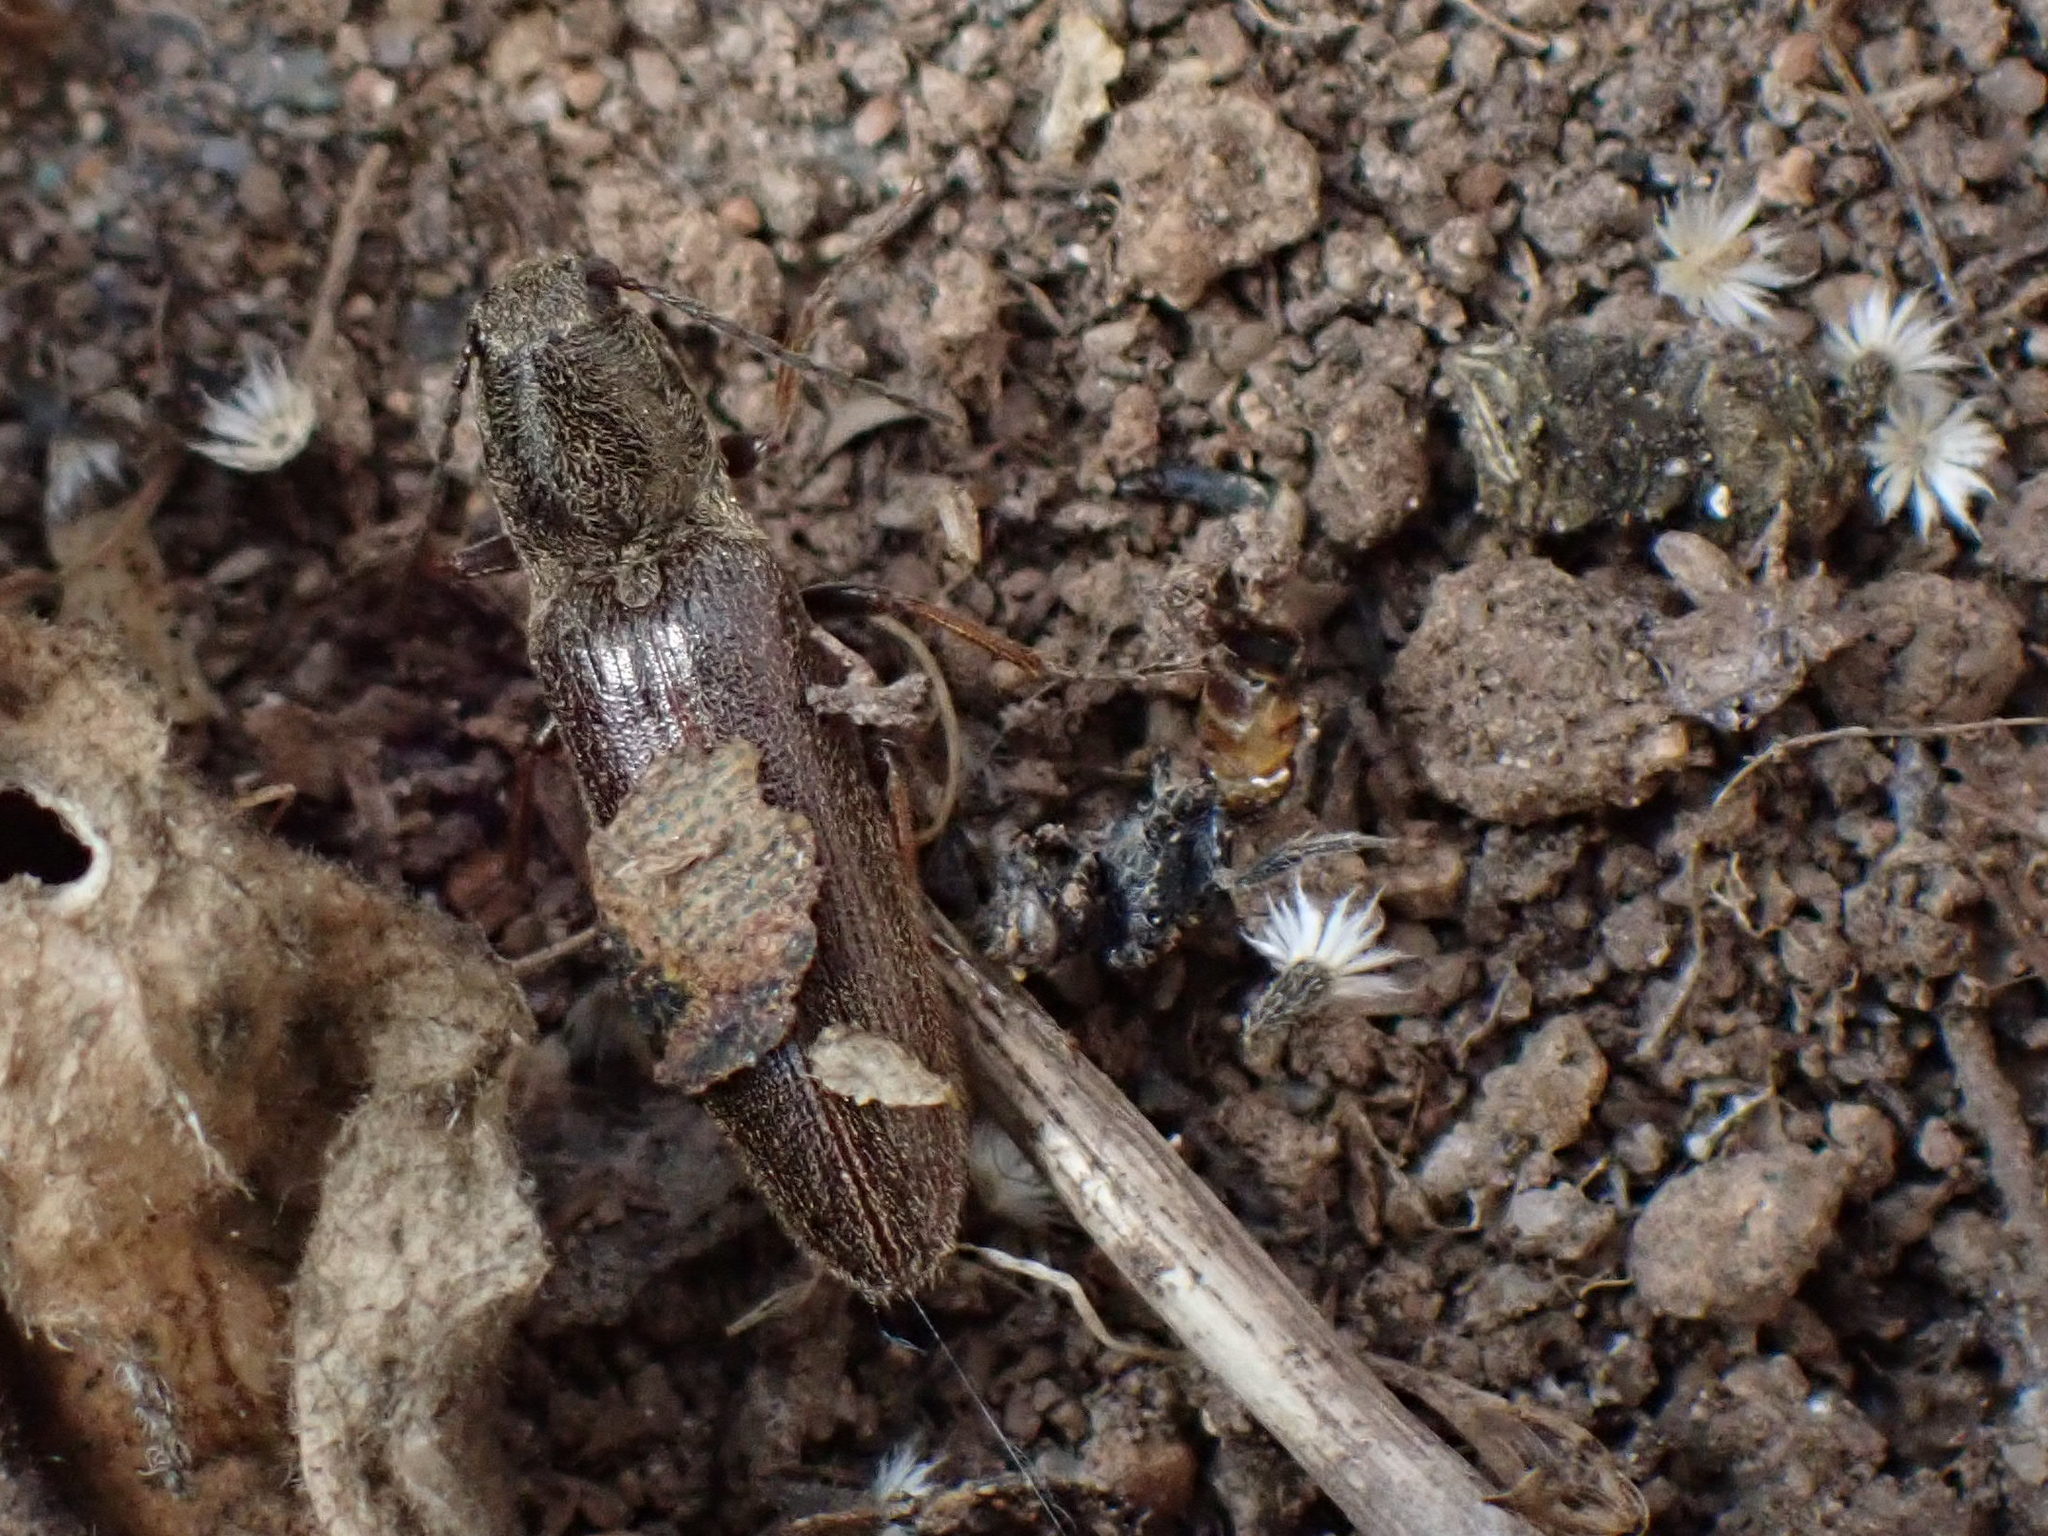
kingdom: Animalia
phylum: Arthropoda
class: Insecta
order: Coleoptera
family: Elateridae
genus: Sylvanelater
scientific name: Sylvanelater cylindriformis
